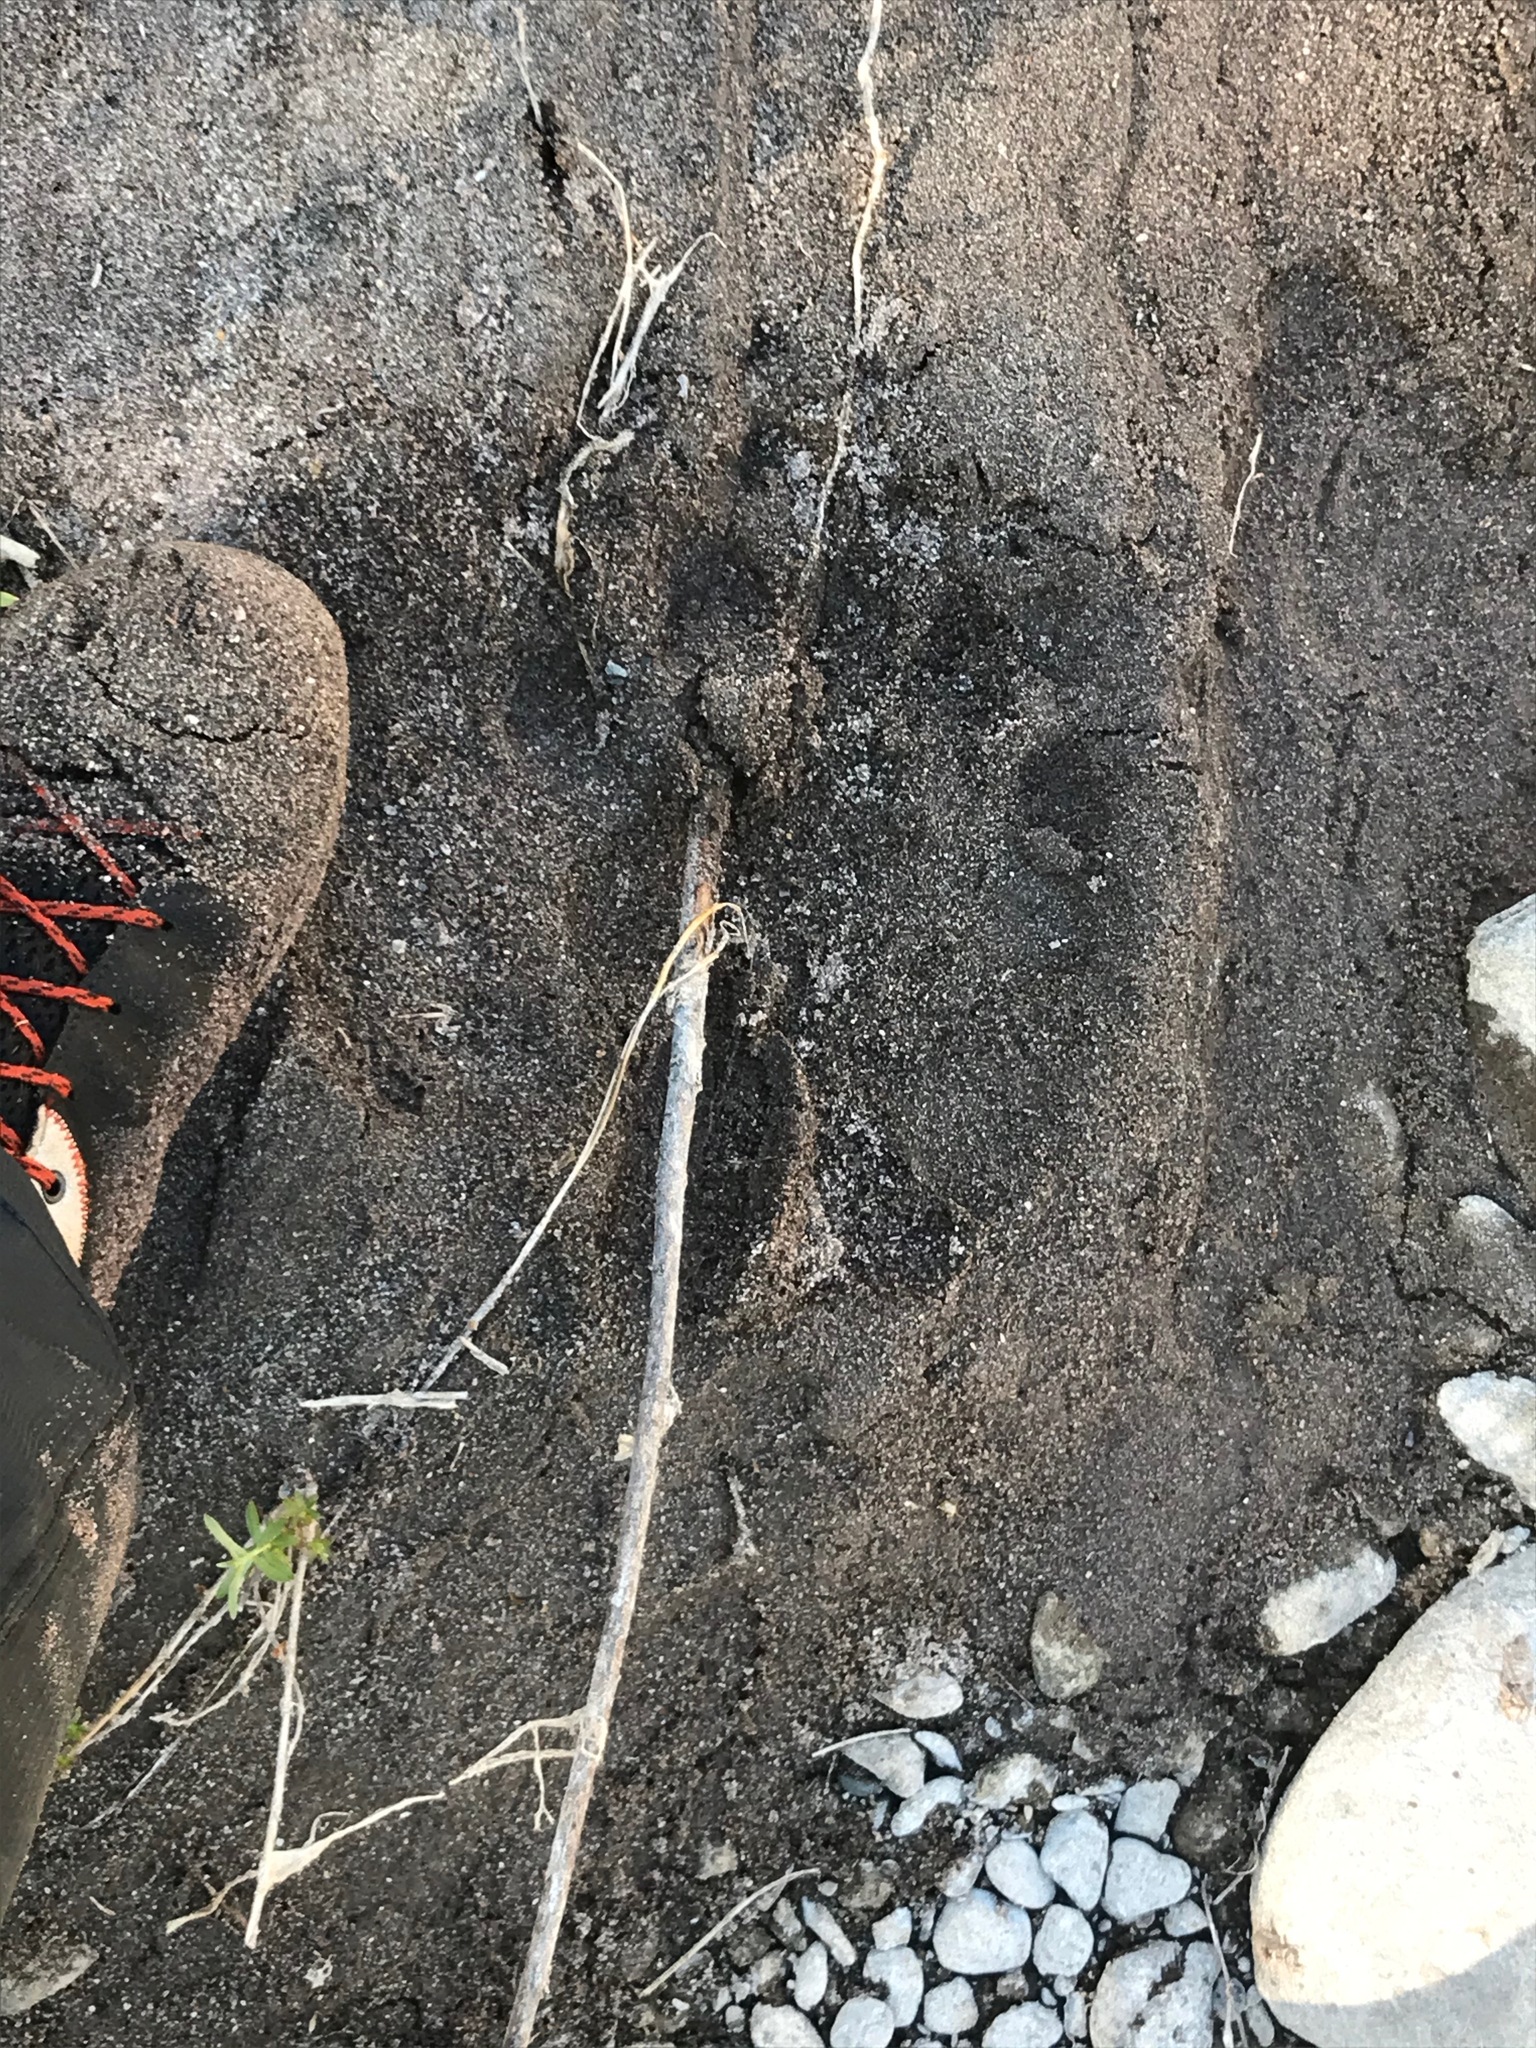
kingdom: Animalia
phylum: Chordata
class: Mammalia
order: Carnivora
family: Ursidae
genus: Ursus
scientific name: Ursus americanus
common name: American black bear
